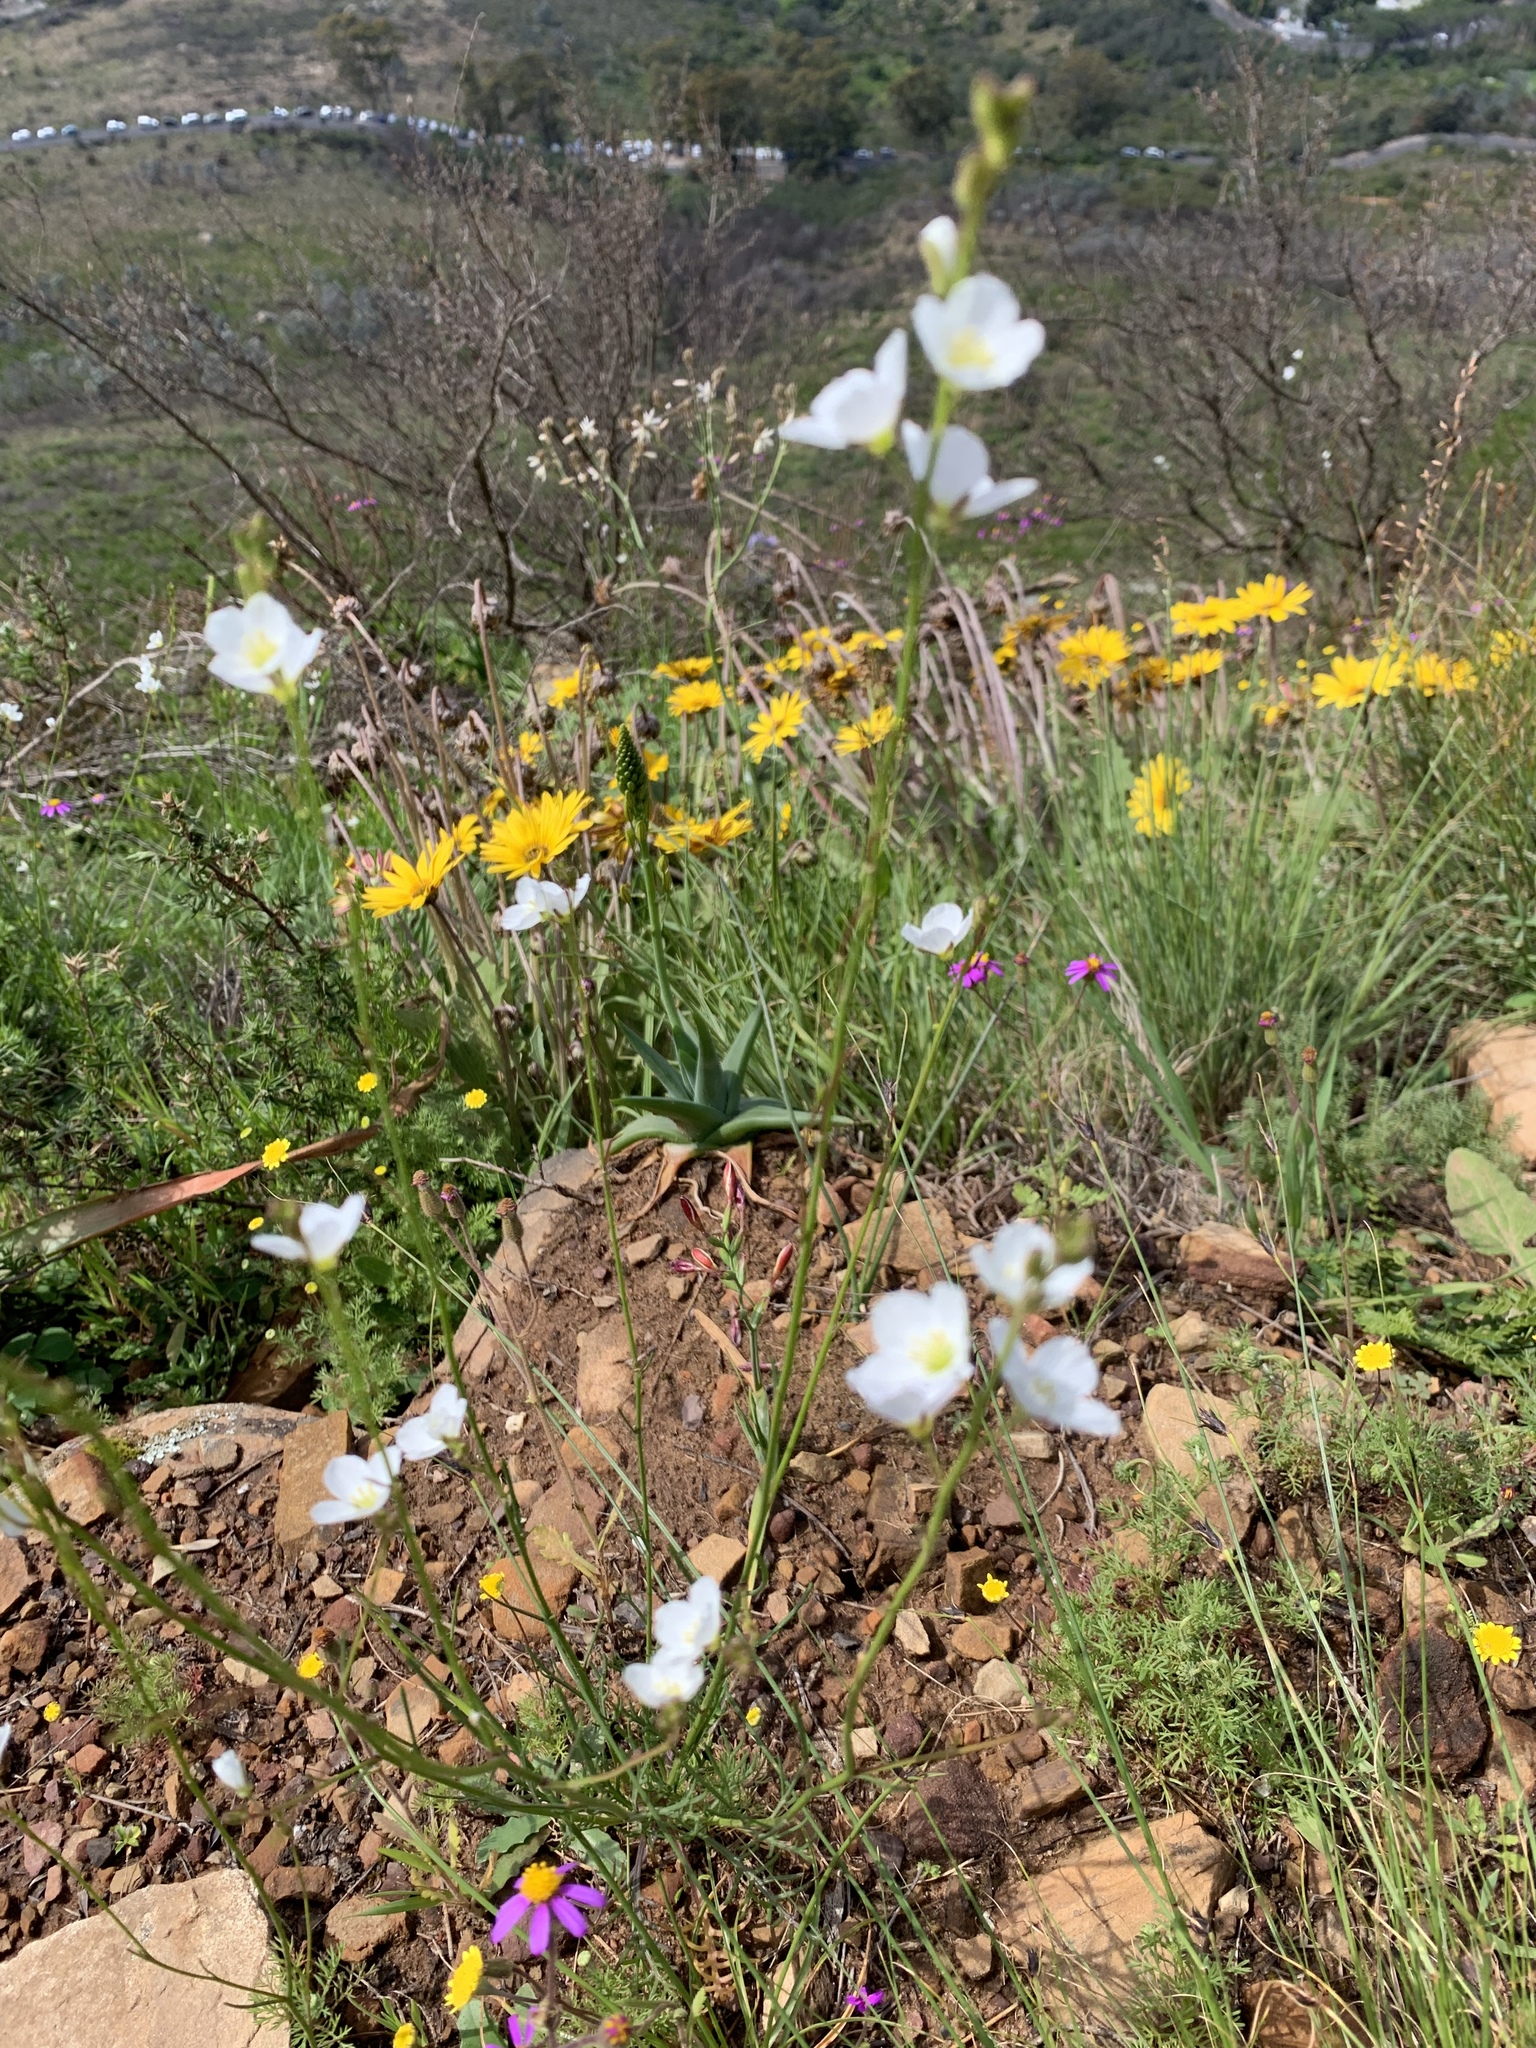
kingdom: Plantae
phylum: Tracheophyta
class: Magnoliopsida
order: Brassicales
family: Brassicaceae
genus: Heliophila
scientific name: Heliophila coronopifolia
